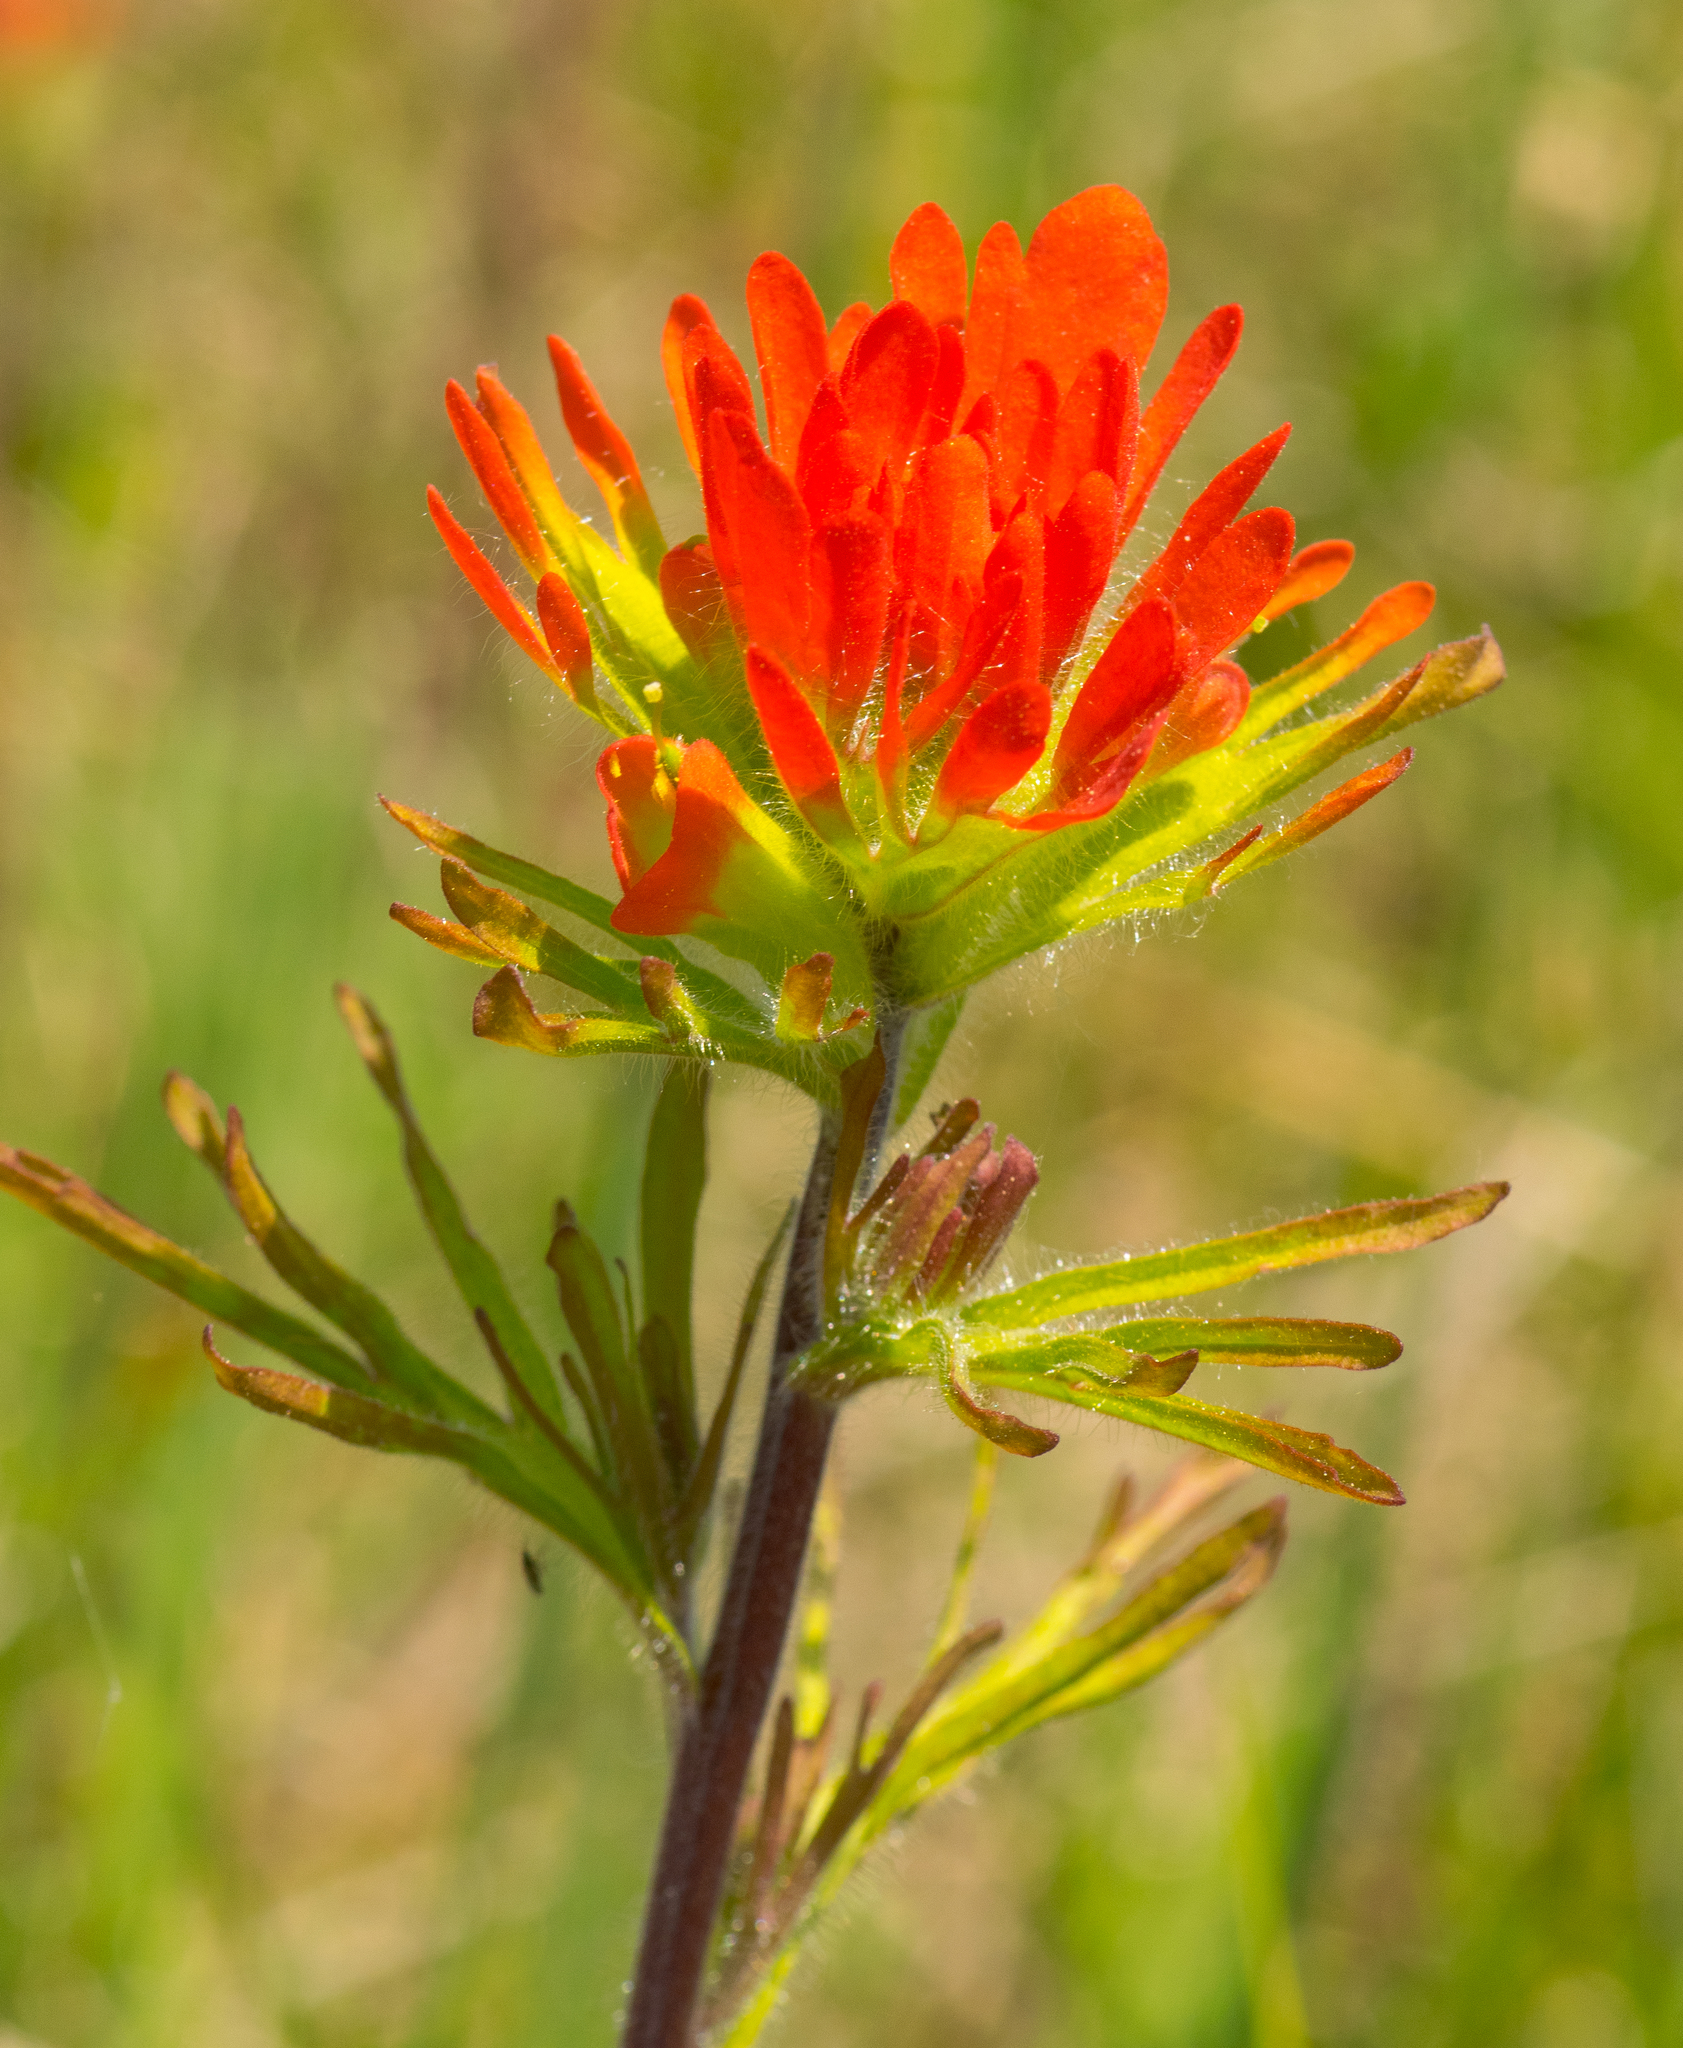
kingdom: Plantae
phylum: Tracheophyta
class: Magnoliopsida
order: Lamiales
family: Orobanchaceae
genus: Castilleja
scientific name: Castilleja coccinea
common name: Scarlet paintbrush
